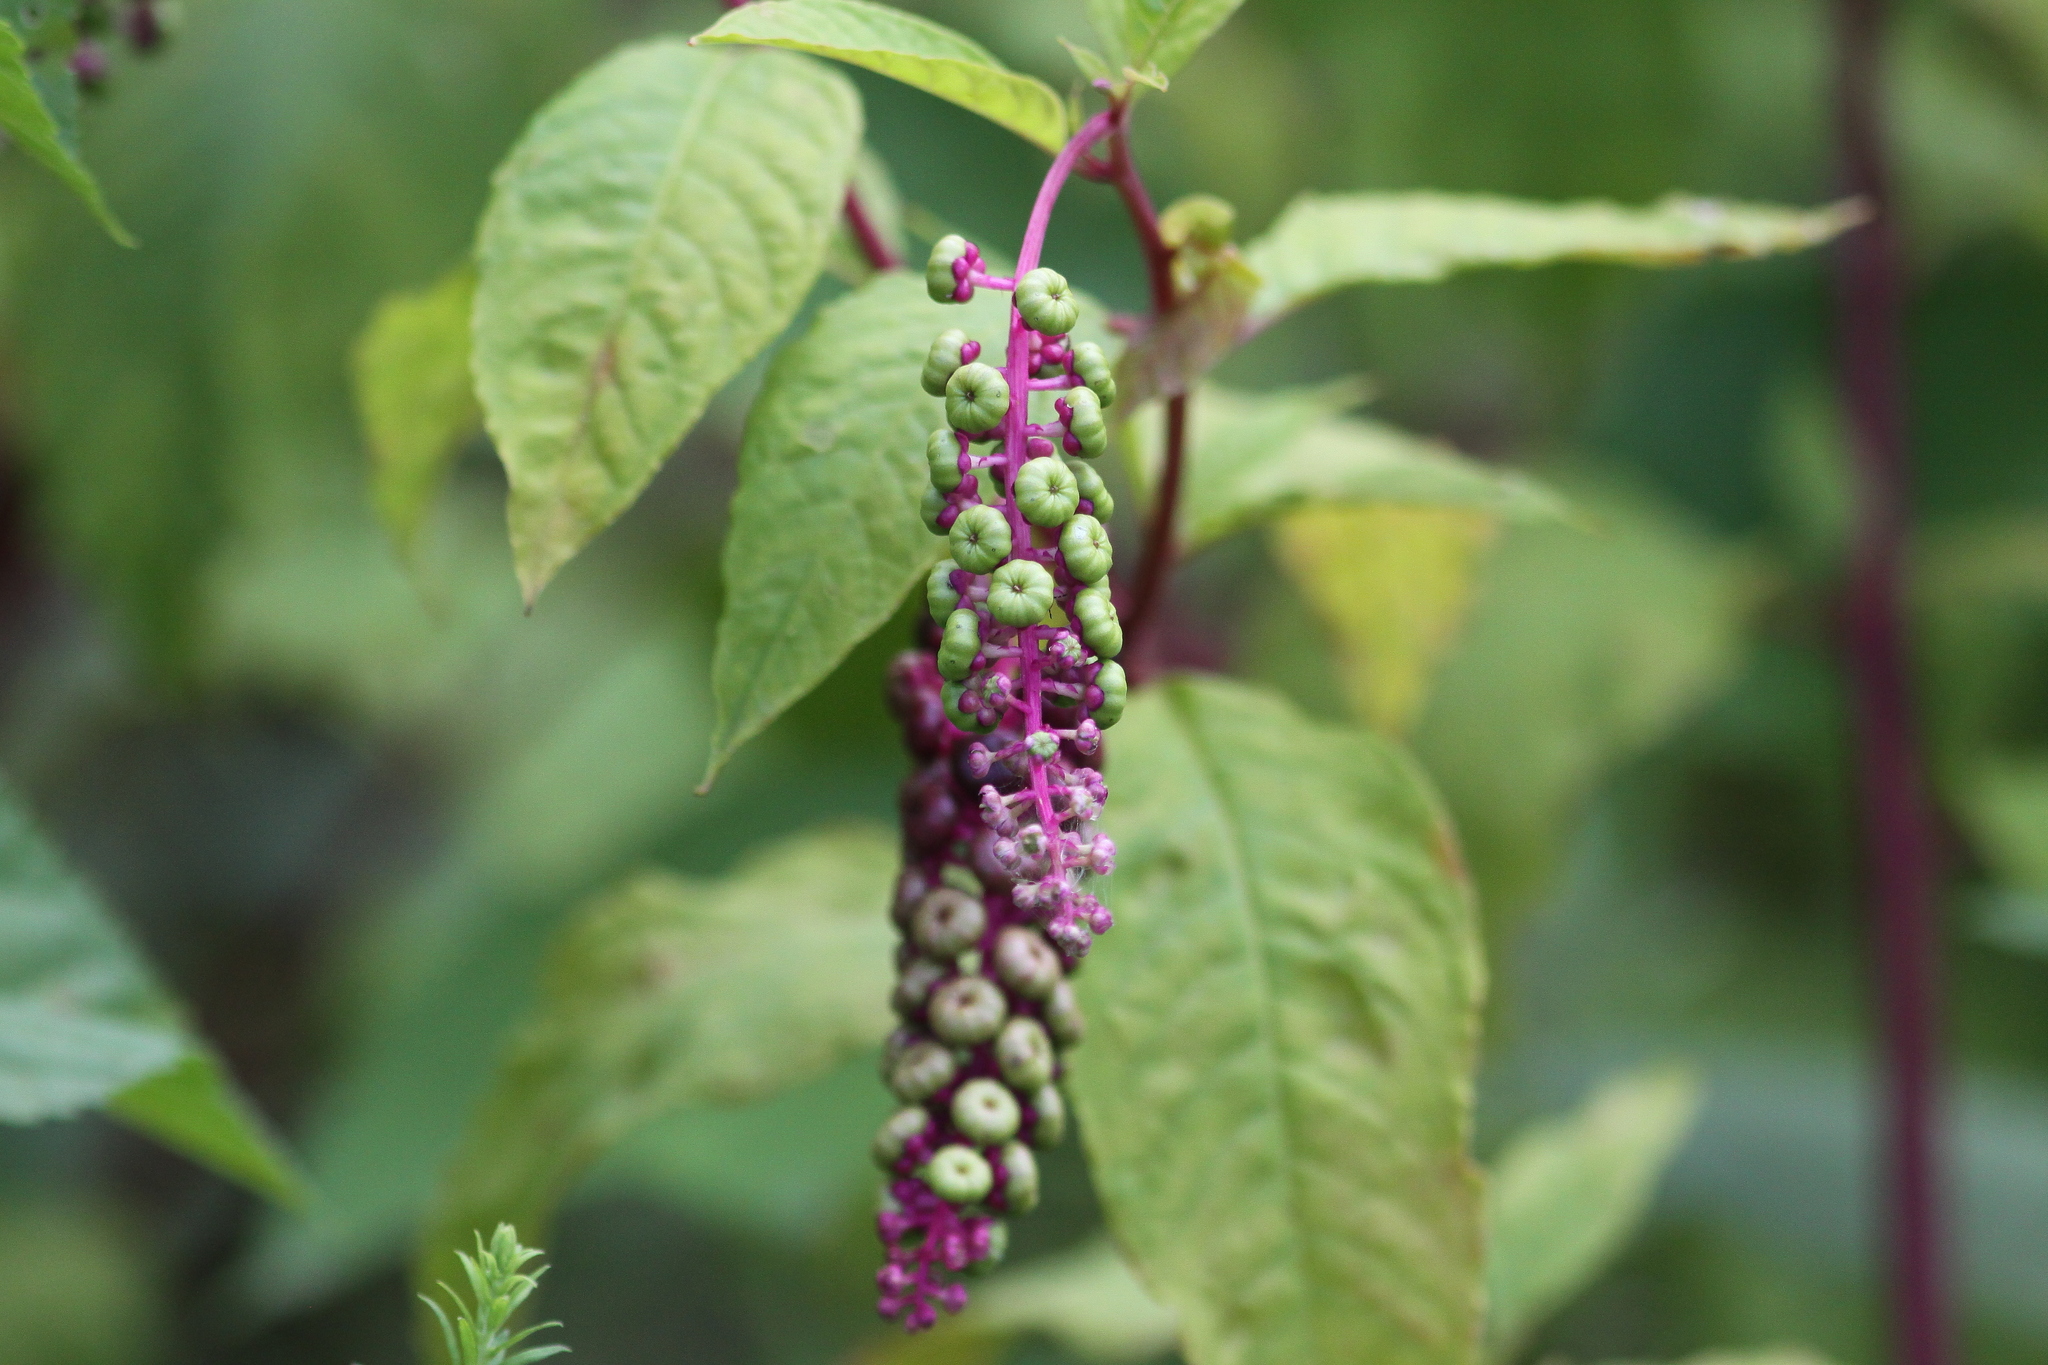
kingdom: Plantae
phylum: Tracheophyta
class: Magnoliopsida
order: Caryophyllales
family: Phytolaccaceae
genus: Phytolacca
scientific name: Phytolacca americana
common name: American pokeweed
